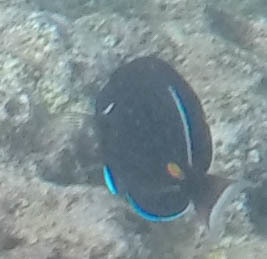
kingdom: Animalia
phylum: Chordata
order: Perciformes
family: Acanthuridae
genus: Acanthurus
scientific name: Acanthurus achilles
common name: Achilles tang
